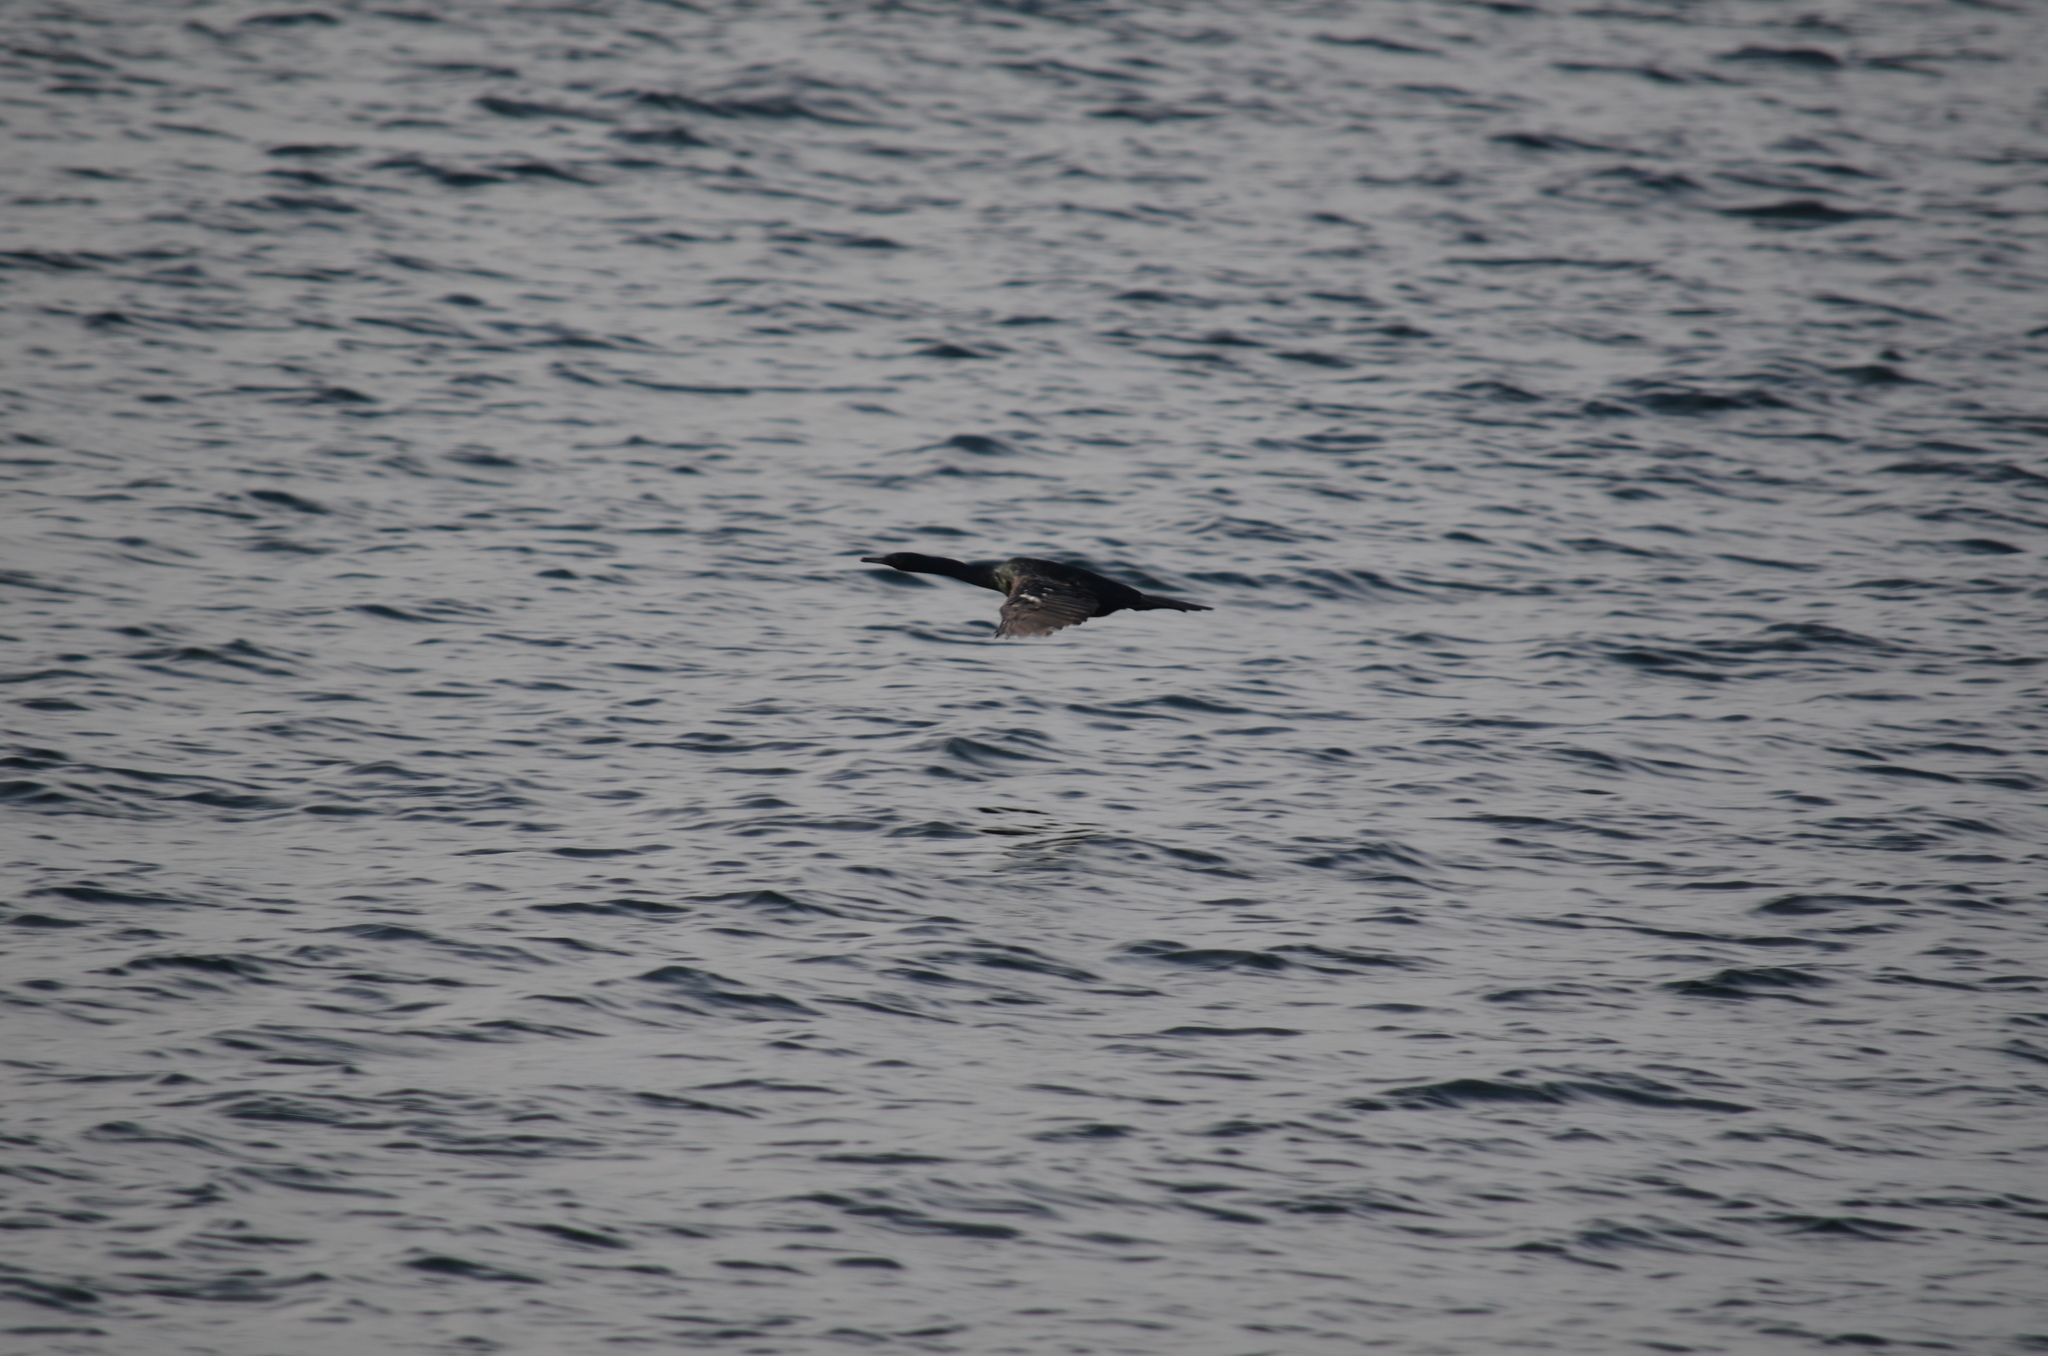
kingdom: Animalia
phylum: Chordata
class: Aves
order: Suliformes
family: Phalacrocoracidae
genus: Phalacrocorax
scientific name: Phalacrocorax pelagicus
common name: Pelagic cormorant
